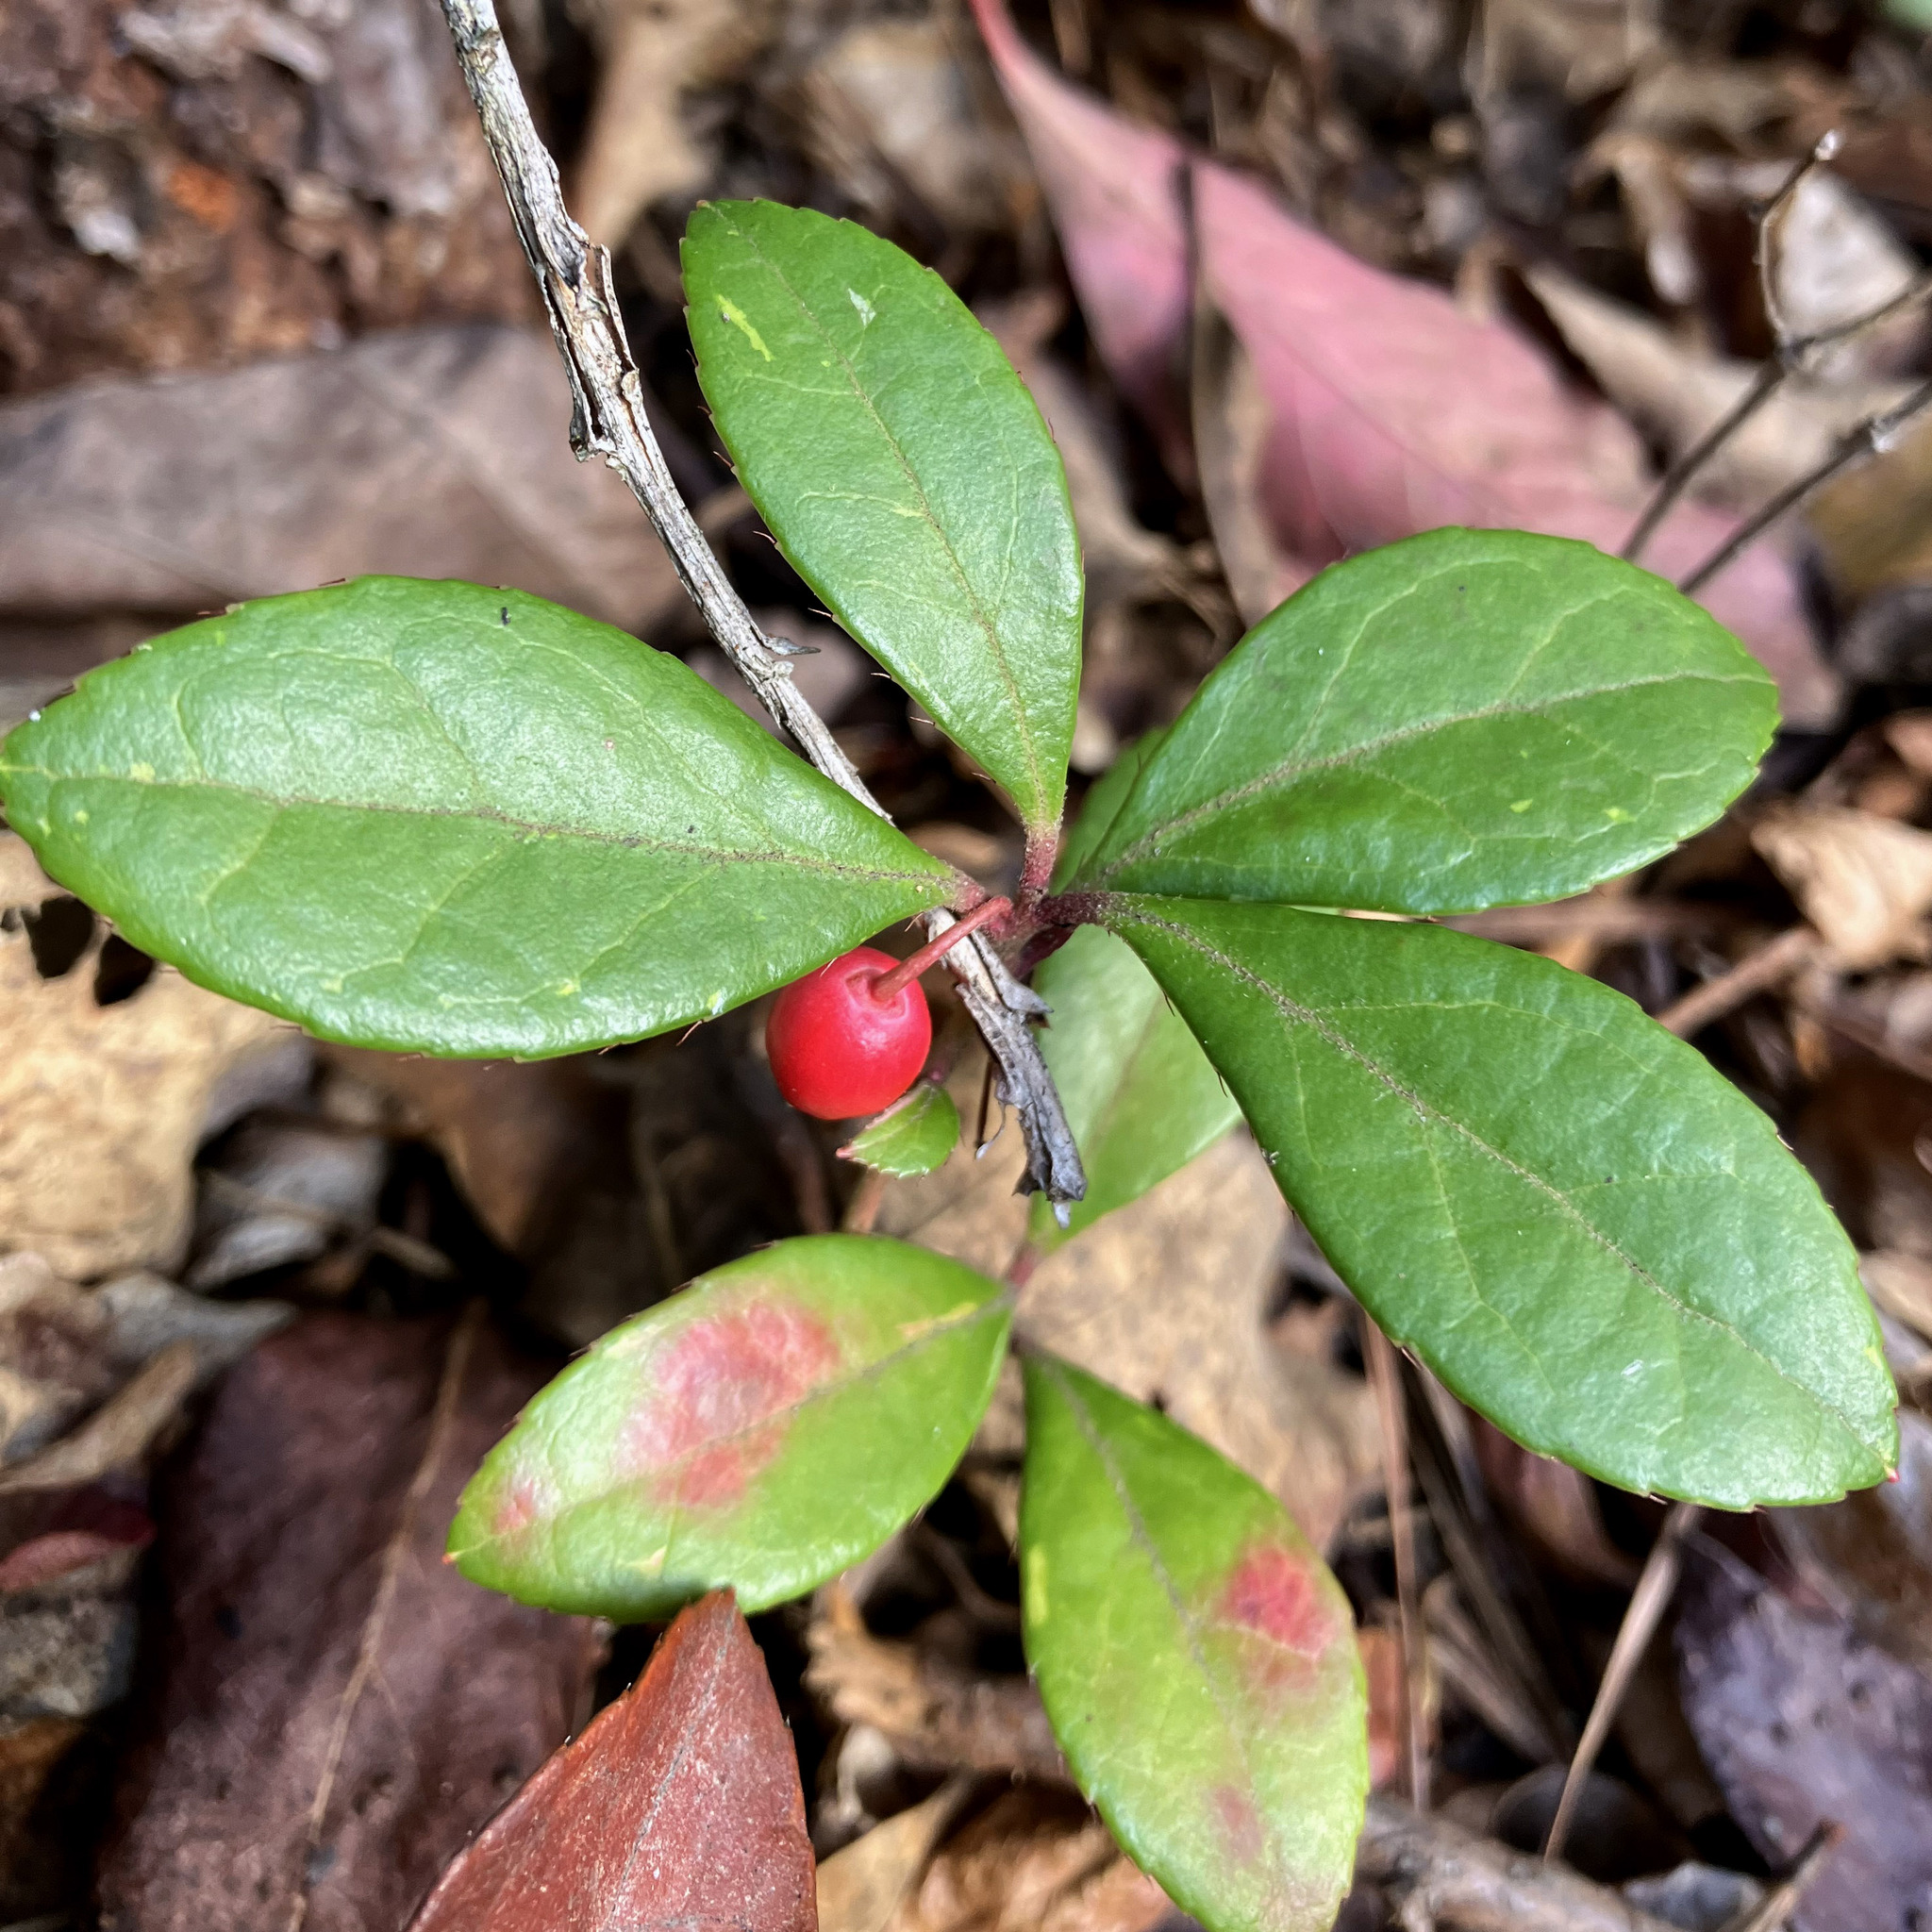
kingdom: Plantae
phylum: Tracheophyta
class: Magnoliopsida
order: Ericales
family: Ericaceae
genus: Gaultheria
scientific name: Gaultheria procumbens
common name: Checkerberry
